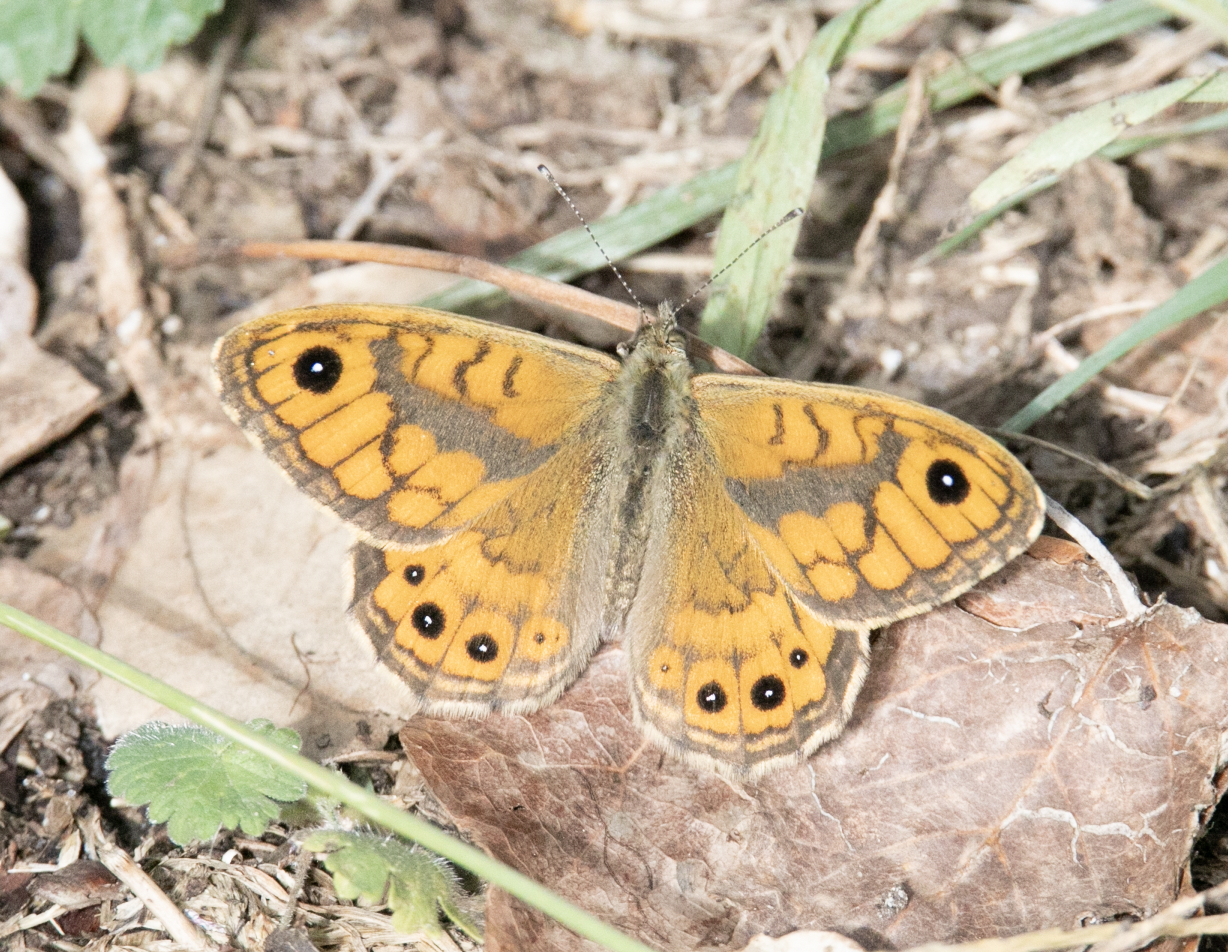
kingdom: Animalia
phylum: Arthropoda
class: Insecta
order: Lepidoptera
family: Nymphalidae
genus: Pararge
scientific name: Pararge Lasiommata megera
